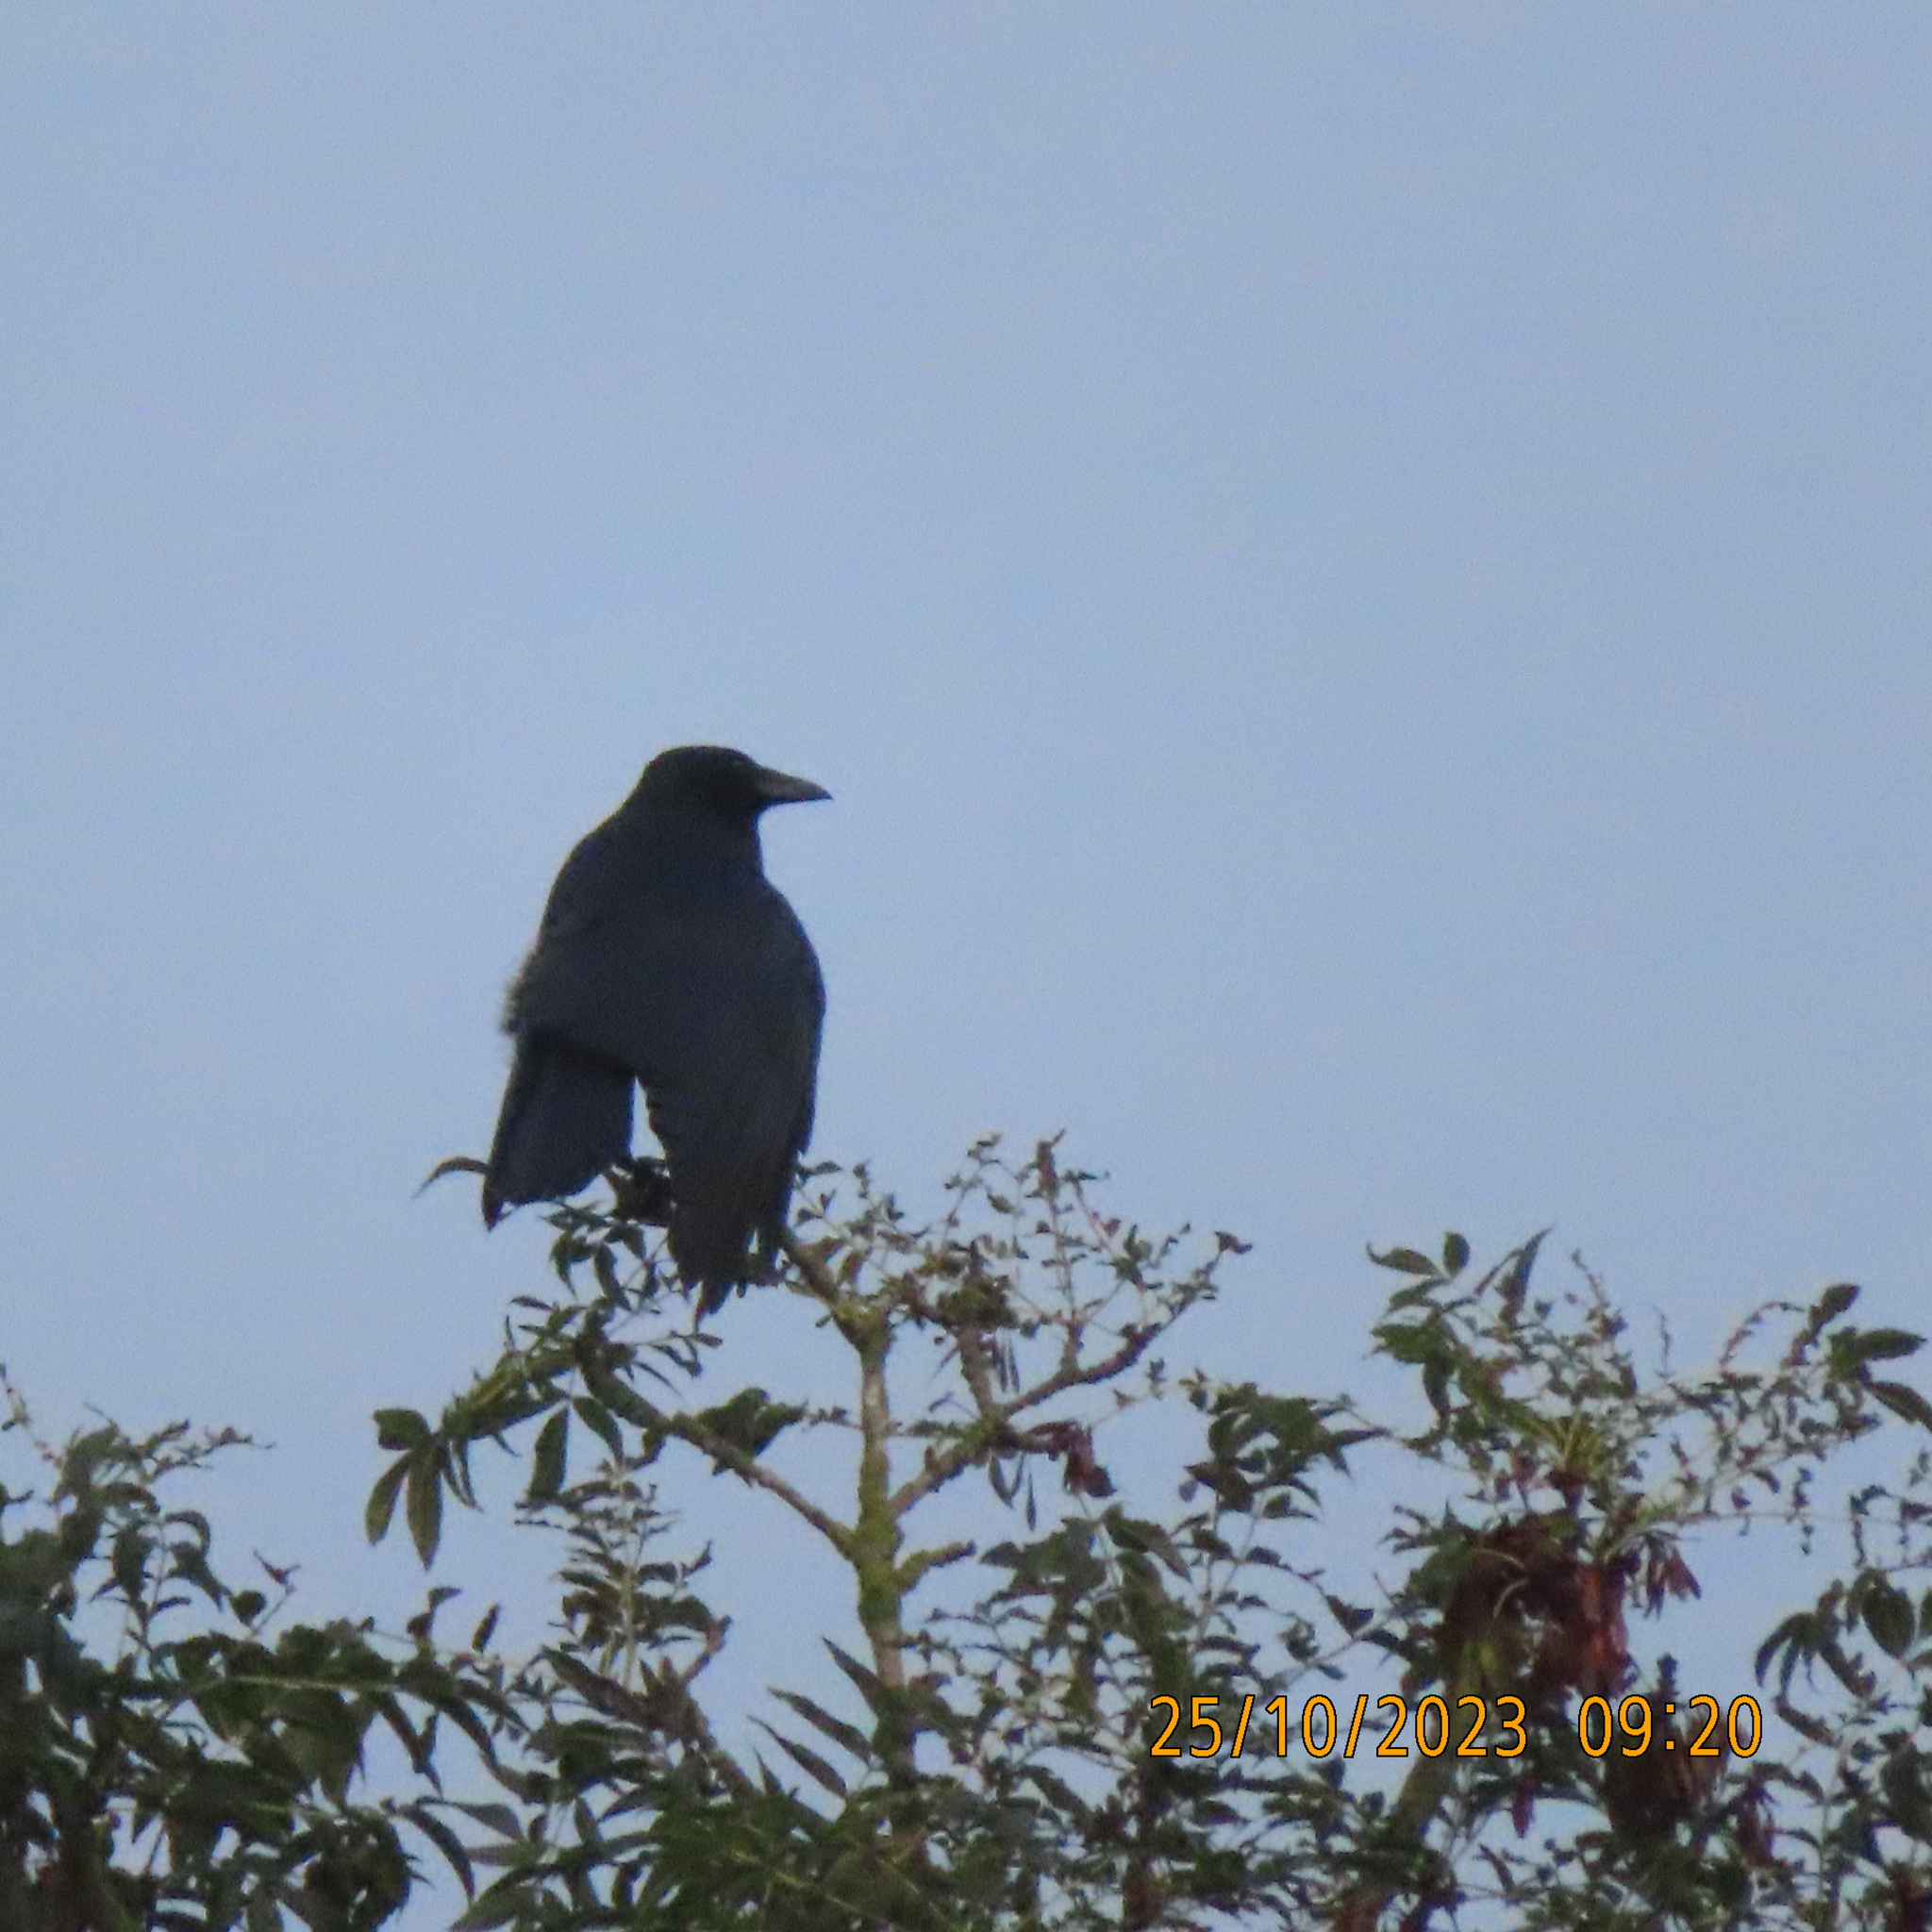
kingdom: Animalia
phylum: Chordata
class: Aves
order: Passeriformes
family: Corvidae
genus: Corvus
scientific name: Corvus corone
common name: Carrion crow
